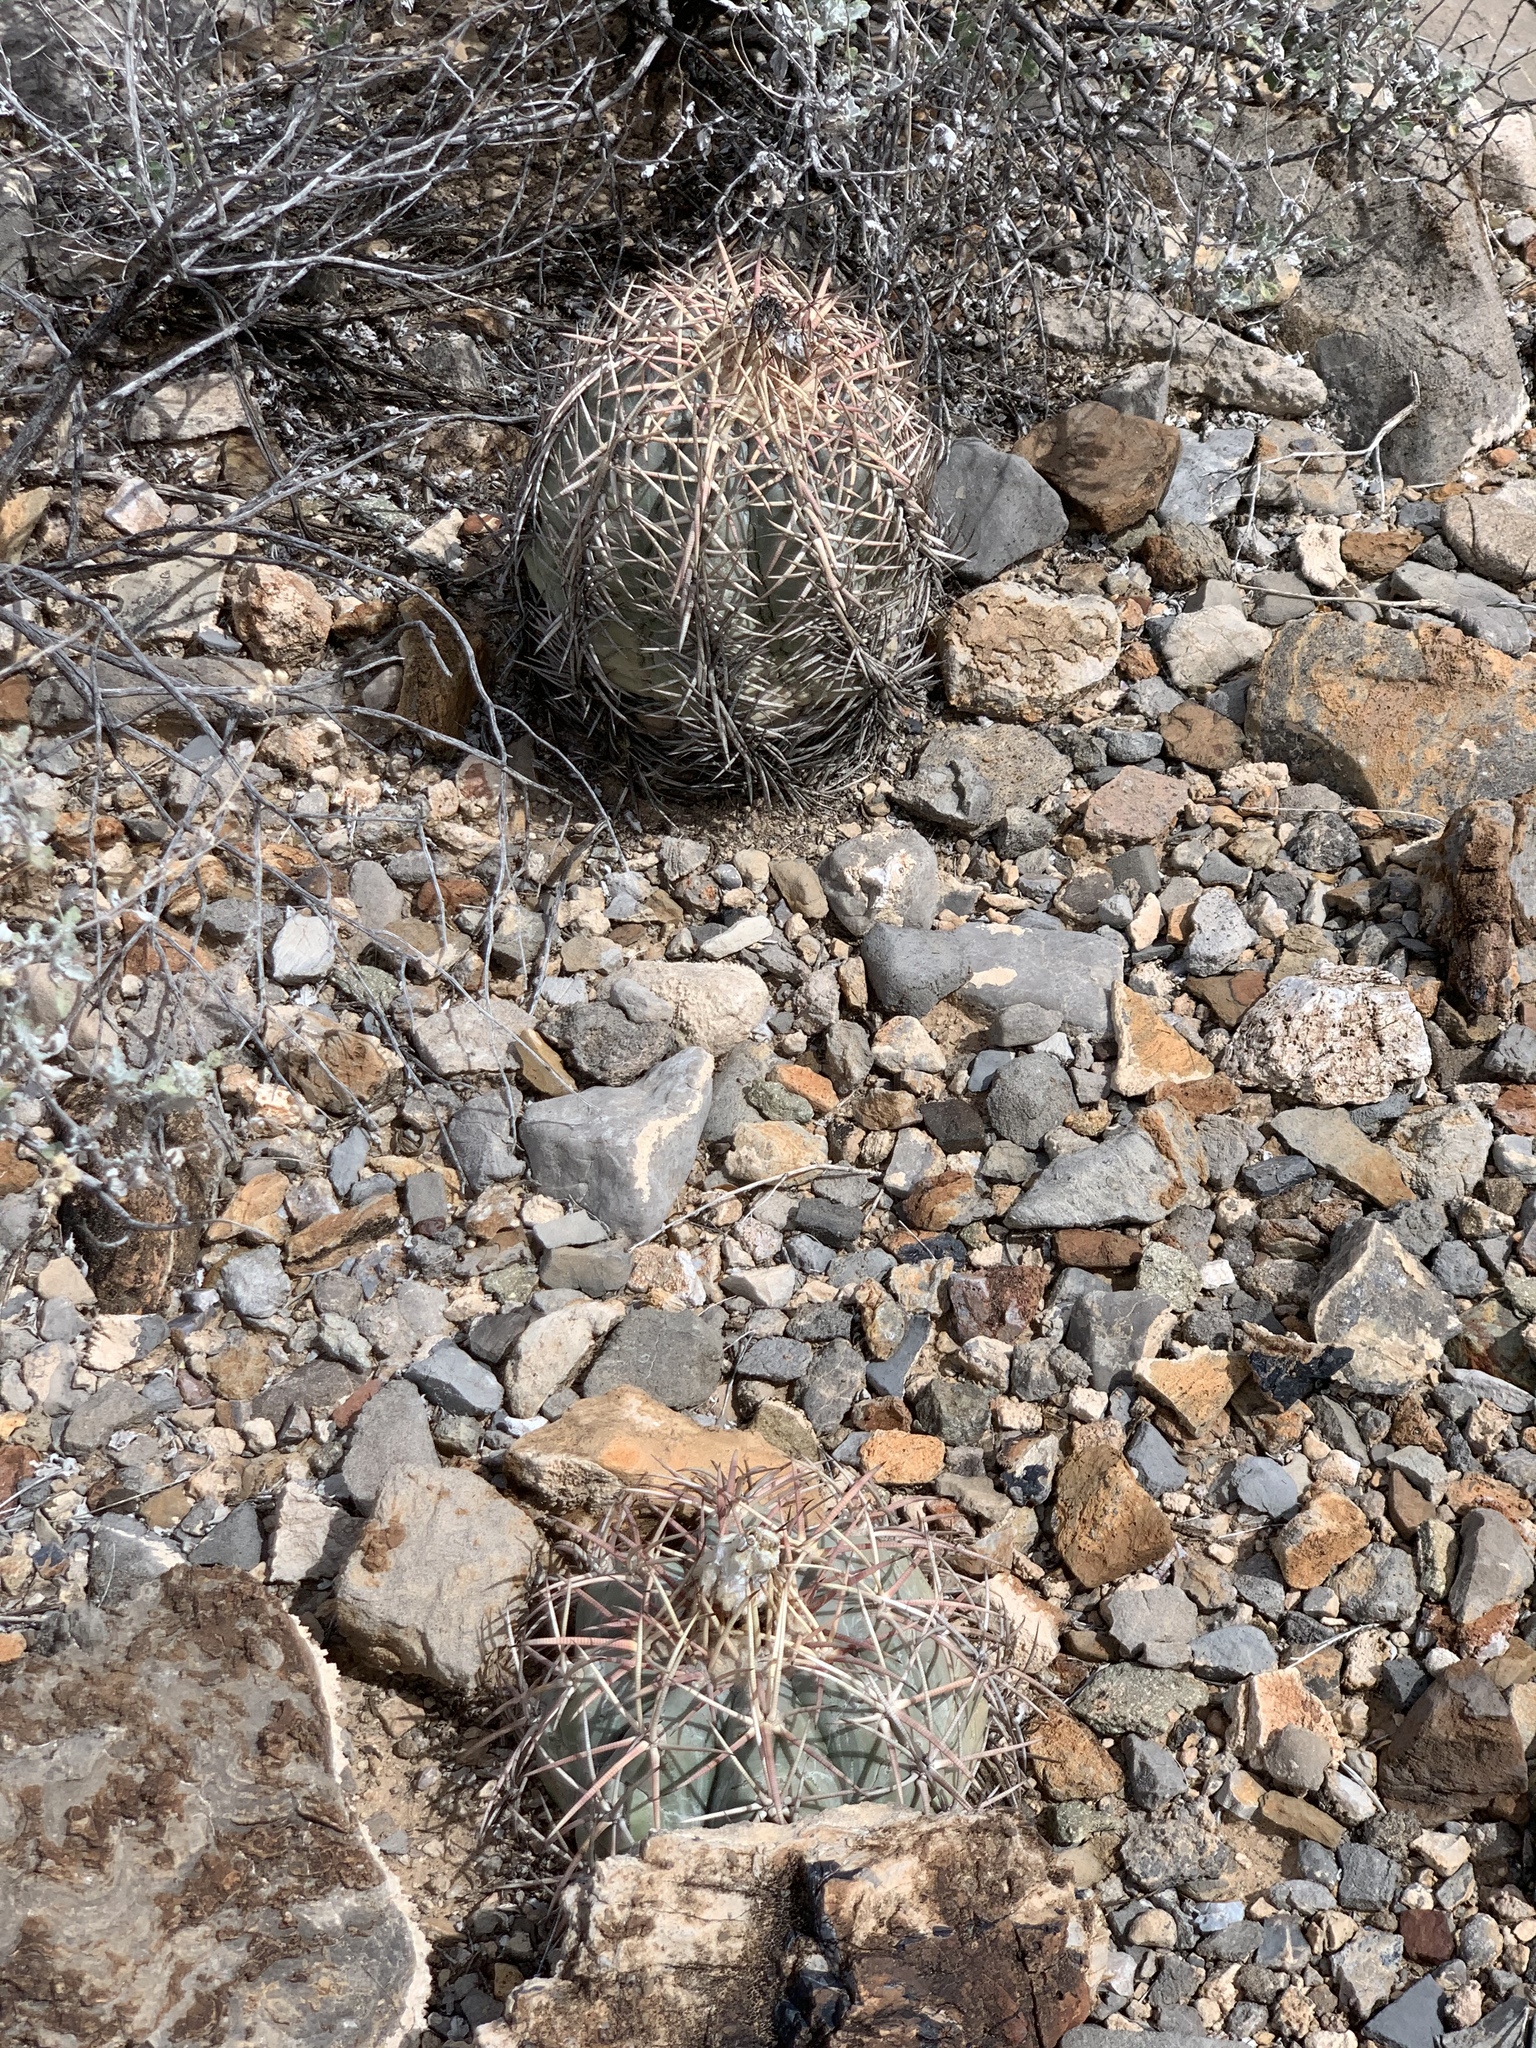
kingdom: Plantae
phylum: Tracheophyta
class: Magnoliopsida
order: Caryophyllales
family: Cactaceae
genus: Echinocactus
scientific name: Echinocactus horizonthalonius
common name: Devilshead
